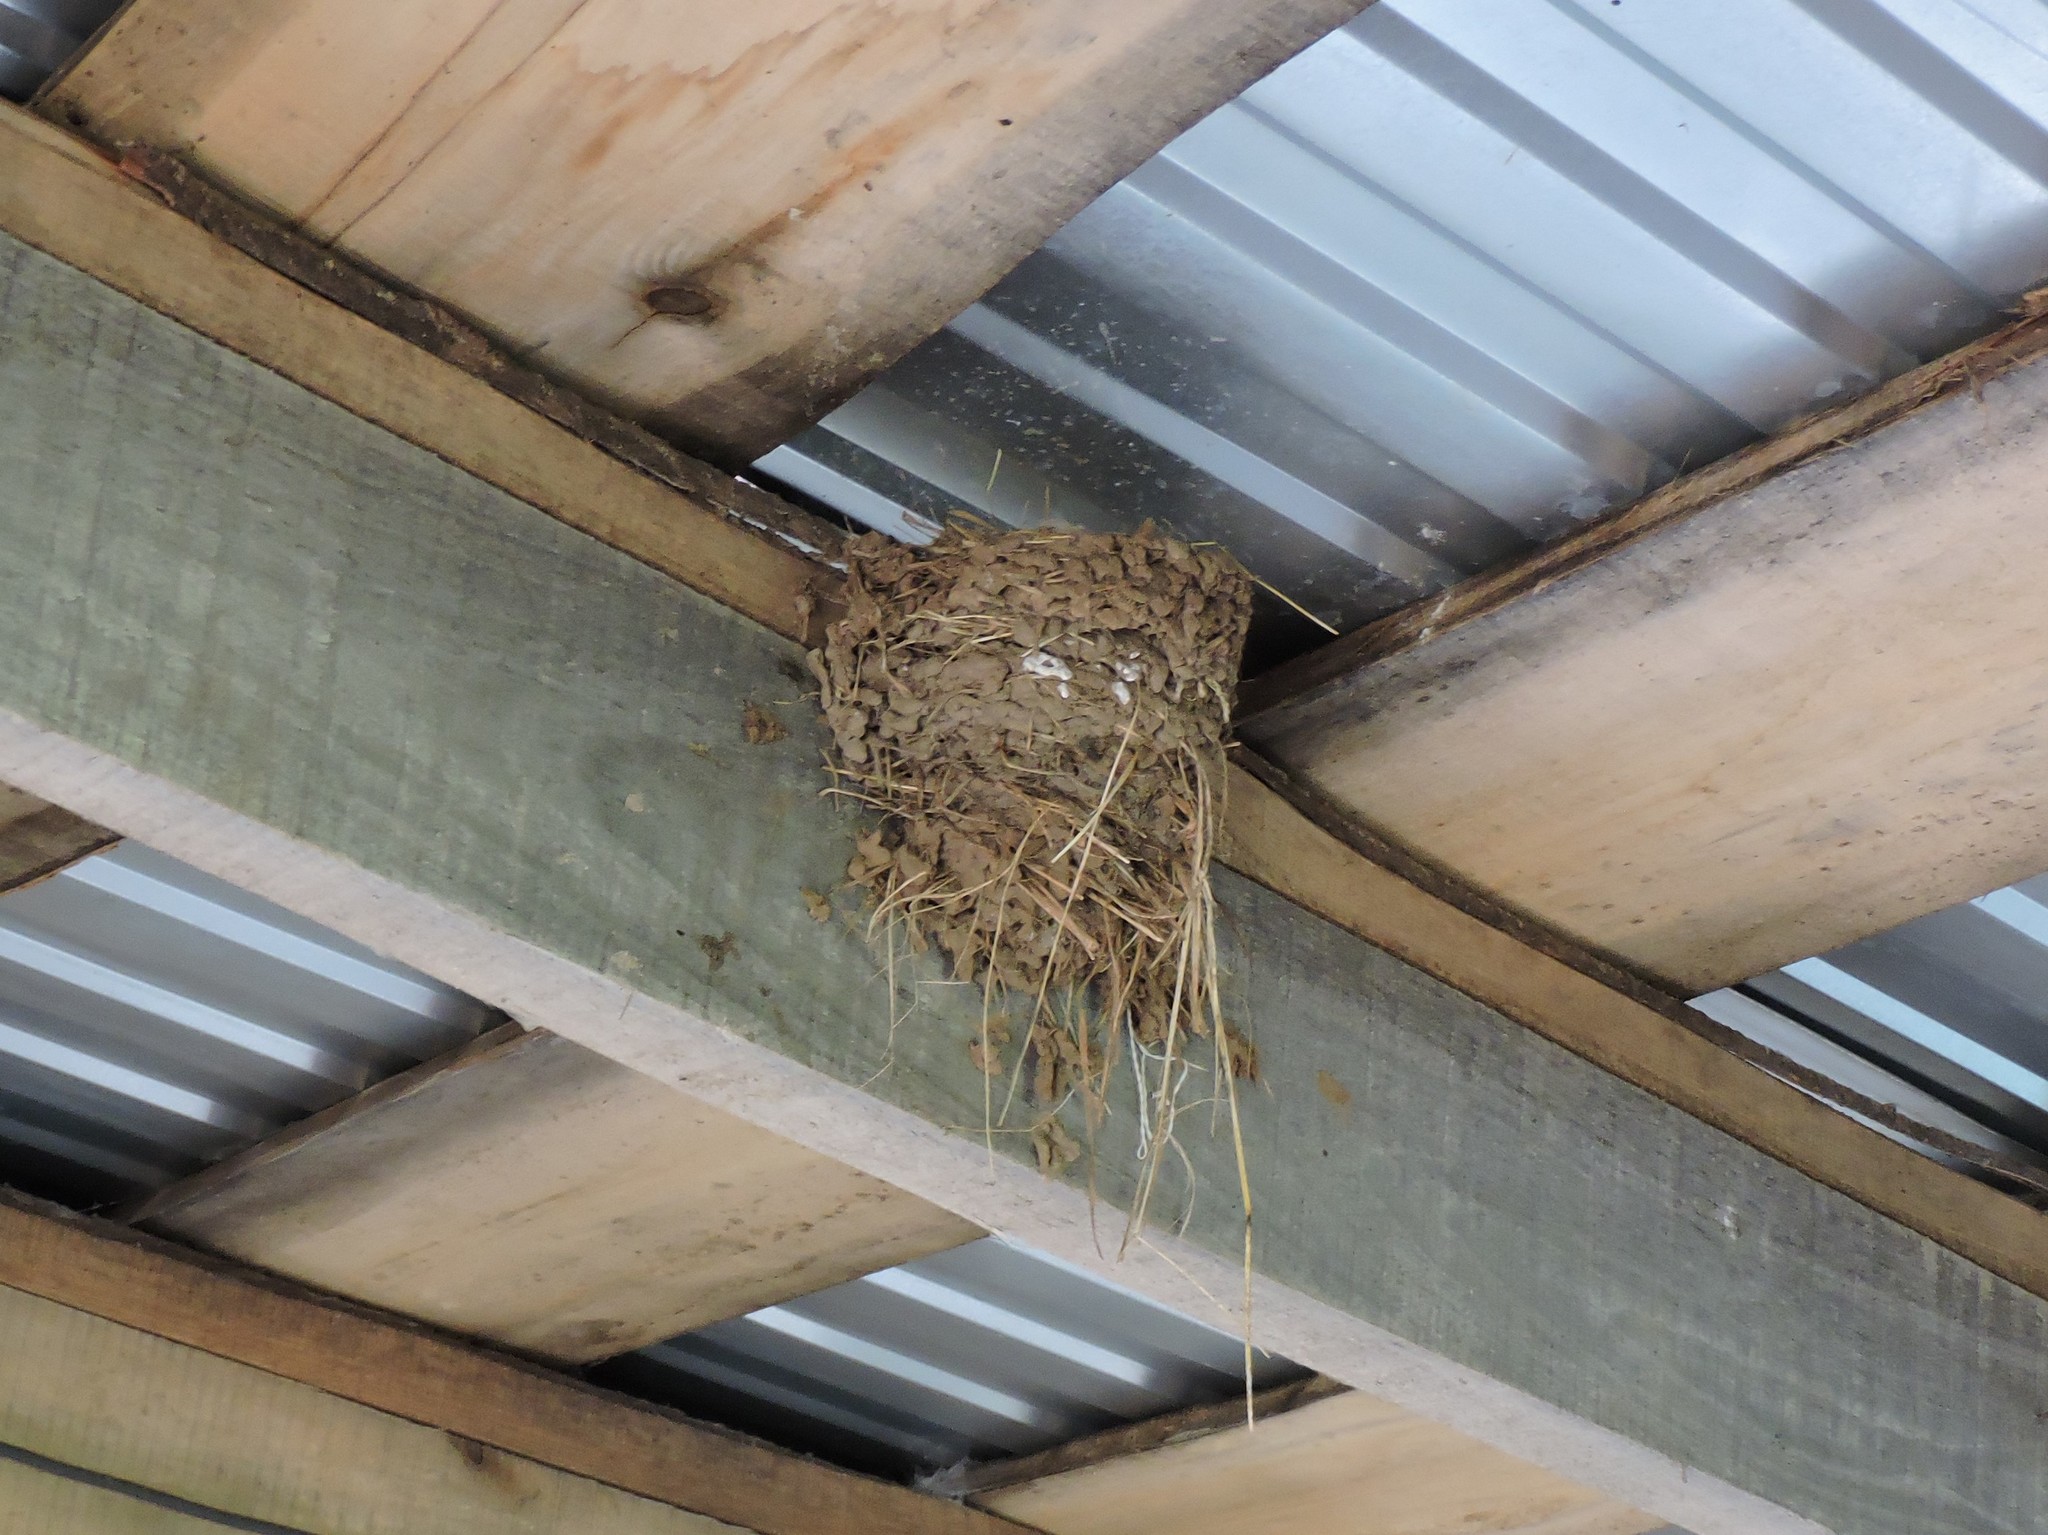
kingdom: Animalia
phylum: Chordata
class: Aves
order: Passeriformes
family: Hirundinidae
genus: Hirundo
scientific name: Hirundo rustica
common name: Barn swallow
